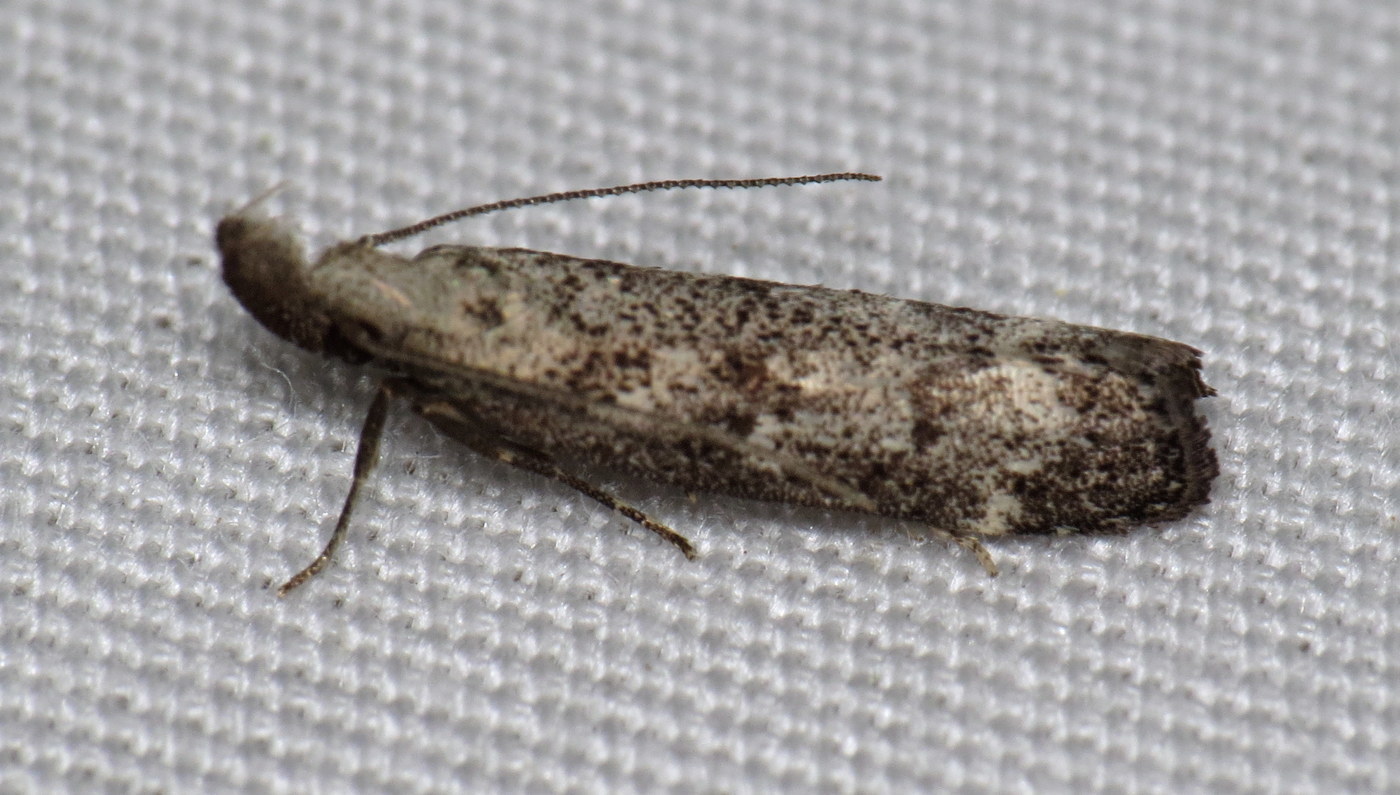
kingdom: Animalia
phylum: Arthropoda
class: Insecta
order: Lepidoptera
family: Gelechiidae
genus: Dichomeris
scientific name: Dichomeris inversella
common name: Inverse dichomeris moth
